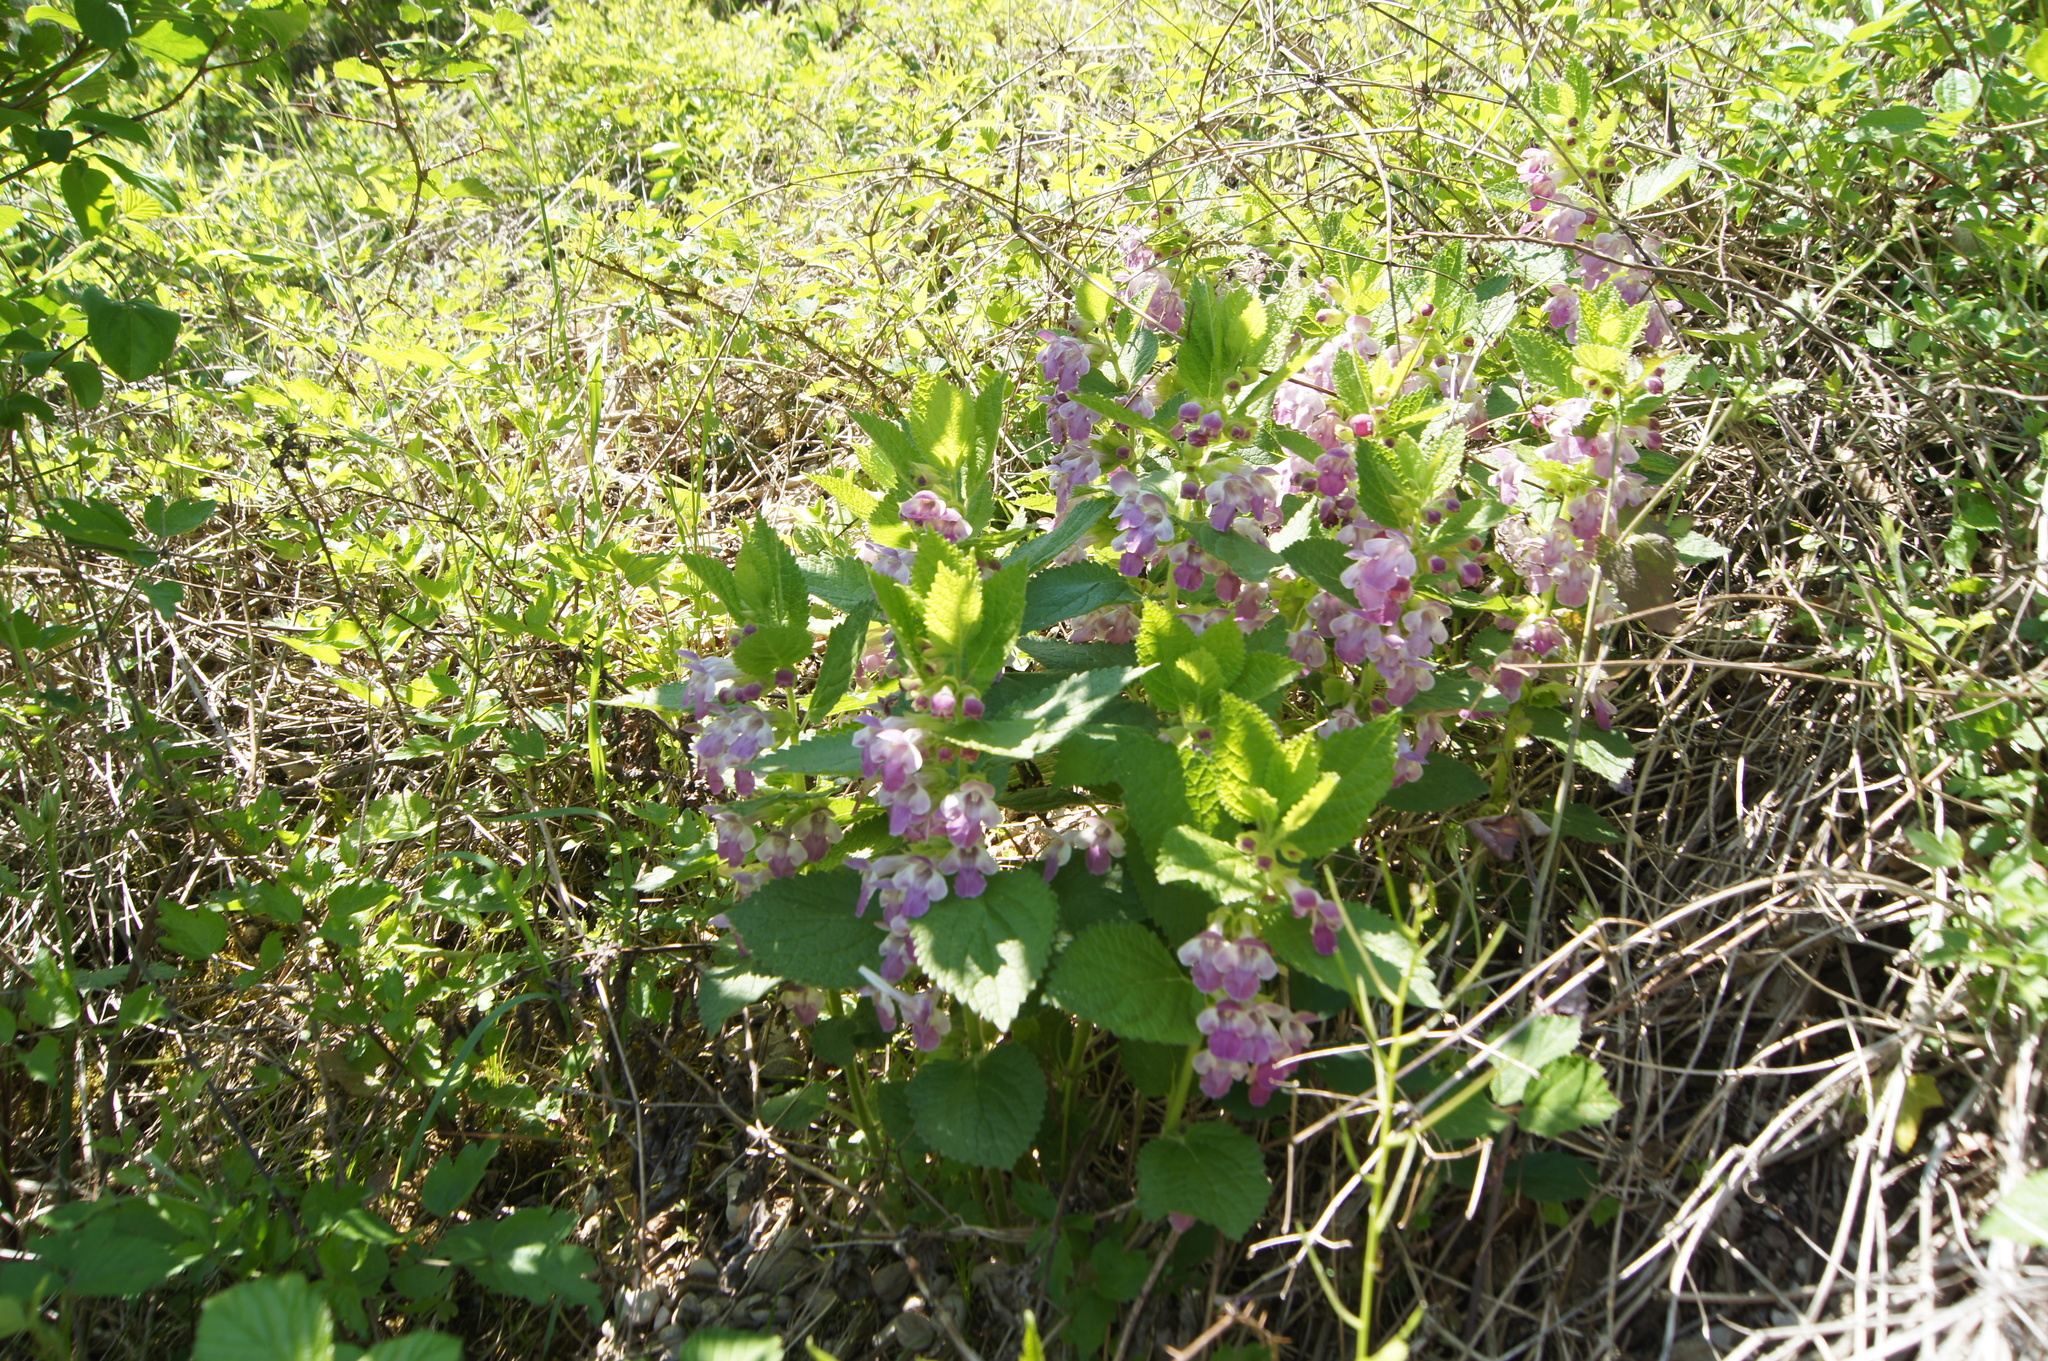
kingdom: Plantae
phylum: Tracheophyta
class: Magnoliopsida
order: Lamiales
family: Lamiaceae
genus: Melittis
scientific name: Melittis melissophyllum
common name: Bastard balm
